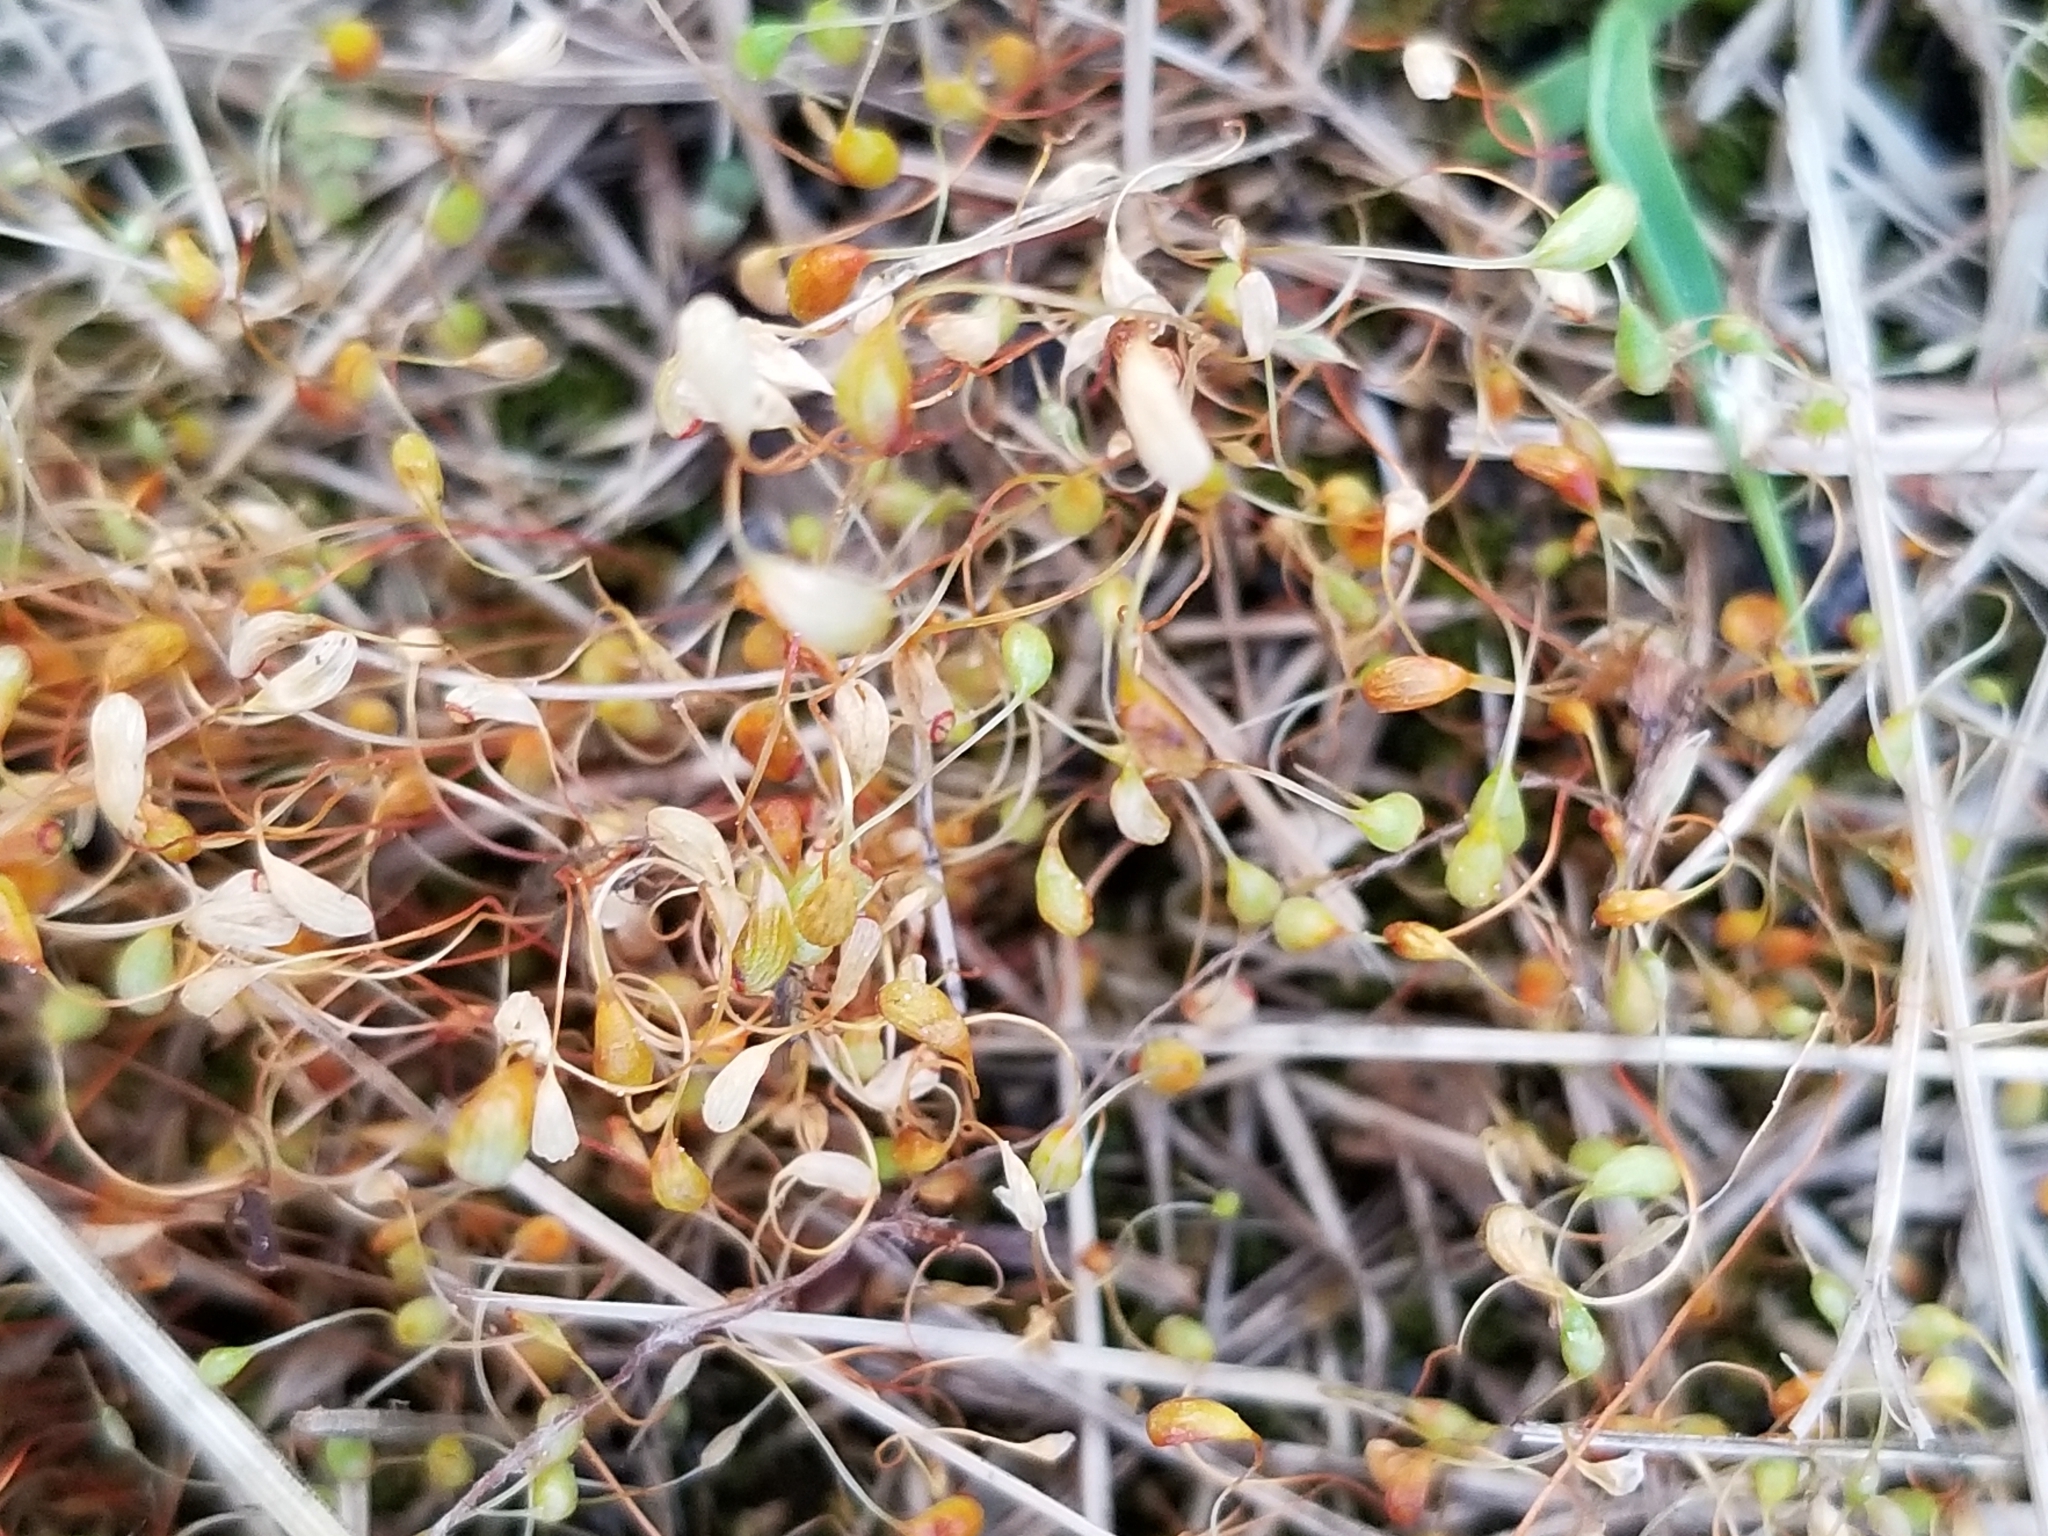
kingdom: Plantae
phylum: Bryophyta
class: Bryopsida
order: Funariales
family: Funariaceae
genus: Funaria
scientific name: Funaria hygrometrica
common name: Common cord moss
